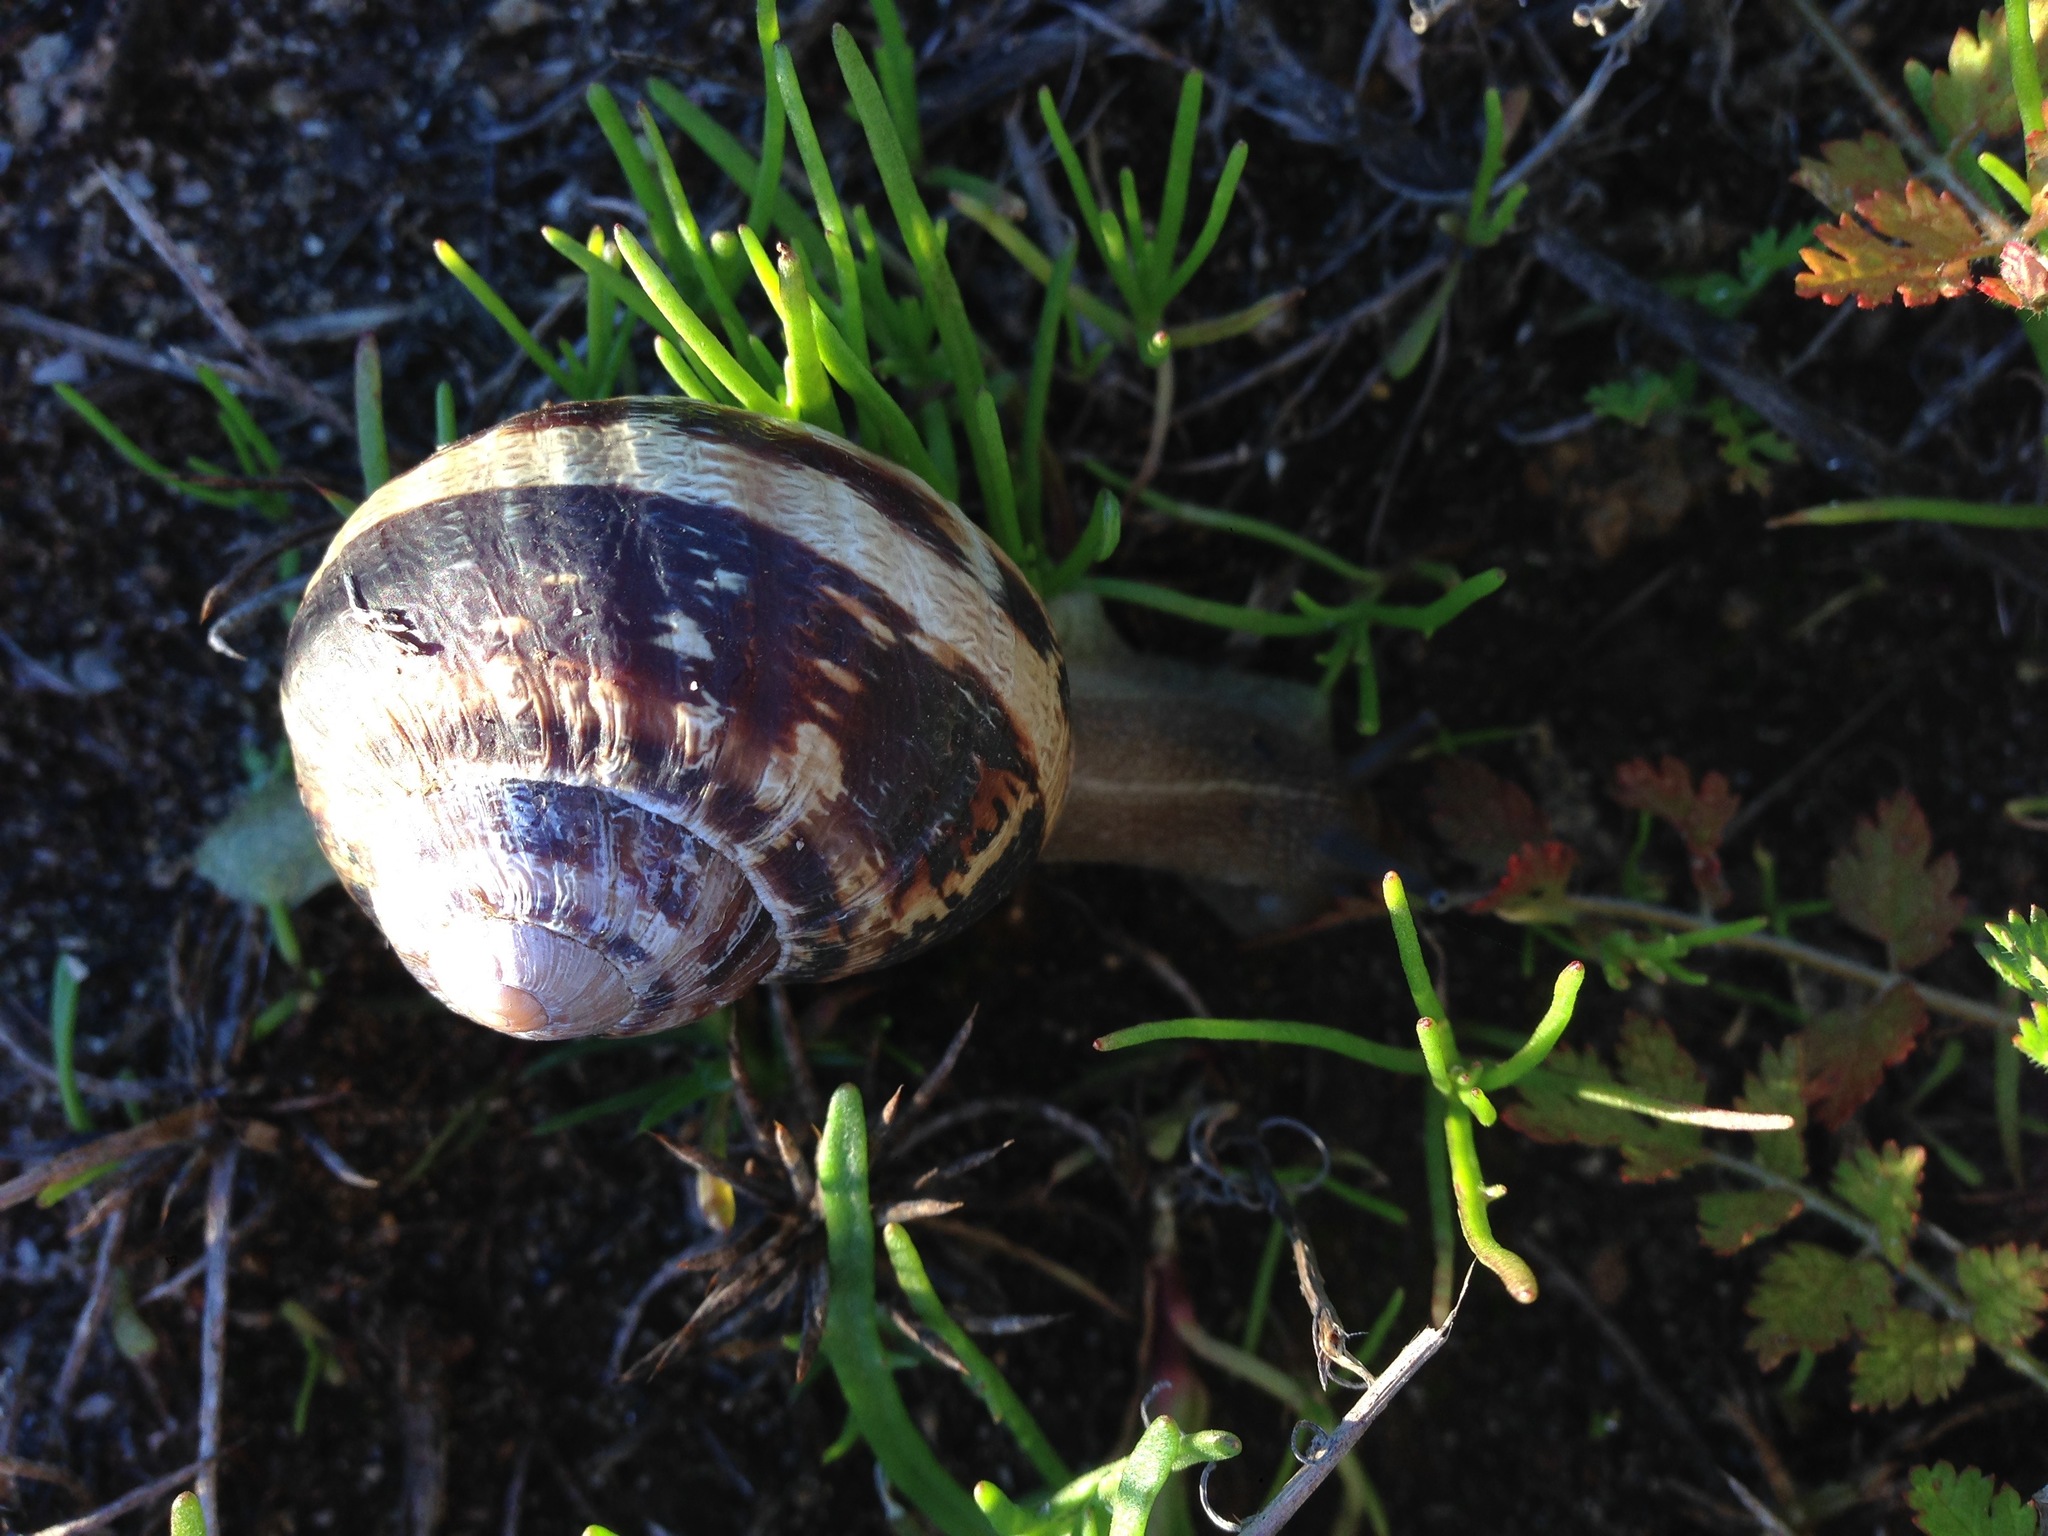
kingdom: Animalia
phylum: Mollusca
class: Gastropoda
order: Stylommatophora
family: Helicidae
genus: Cornu
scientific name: Cornu aspersum
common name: Brown garden snail
